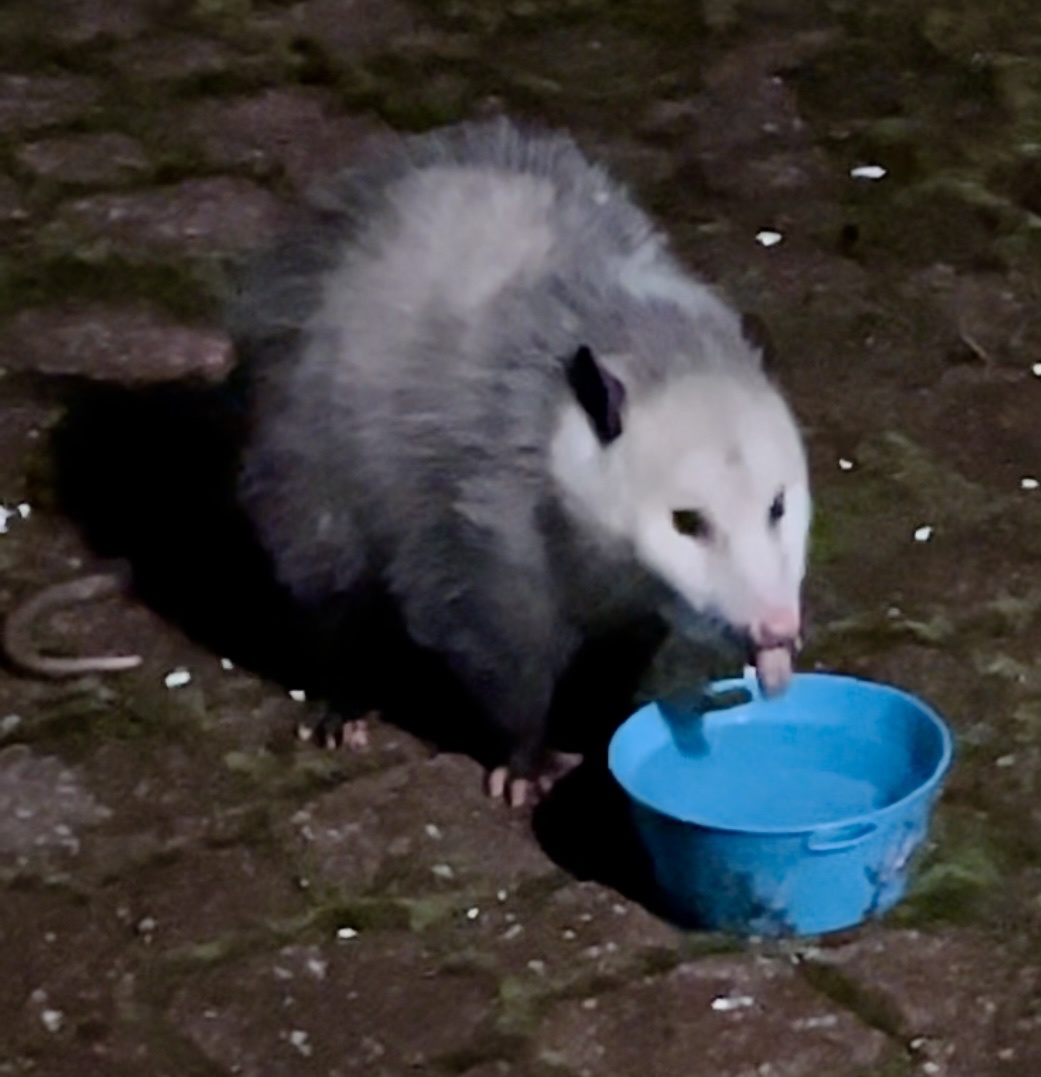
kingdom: Animalia
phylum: Chordata
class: Mammalia
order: Didelphimorphia
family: Didelphidae
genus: Didelphis
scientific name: Didelphis virginiana
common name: Virginia opossum
